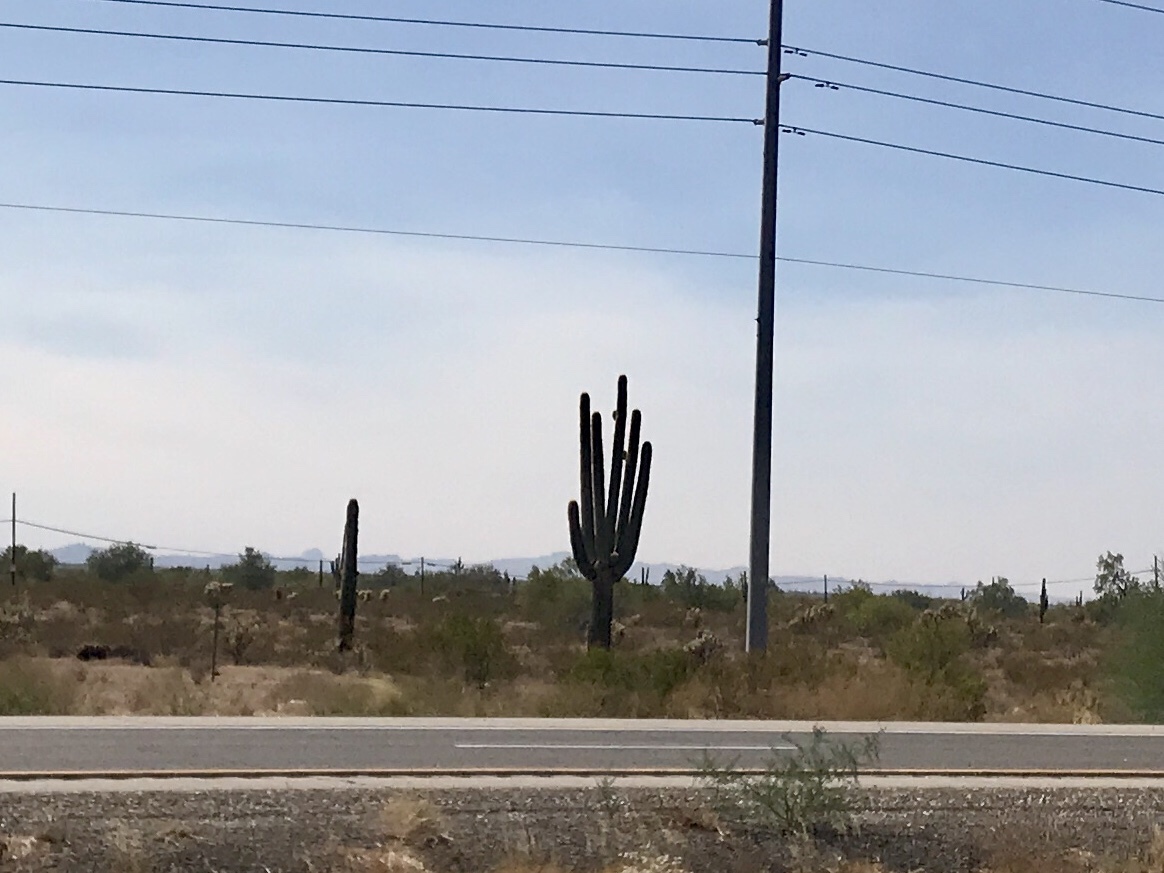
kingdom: Plantae
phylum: Tracheophyta
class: Magnoliopsida
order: Caryophyllales
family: Cactaceae
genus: Carnegiea
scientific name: Carnegiea gigantea
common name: Saguaro
